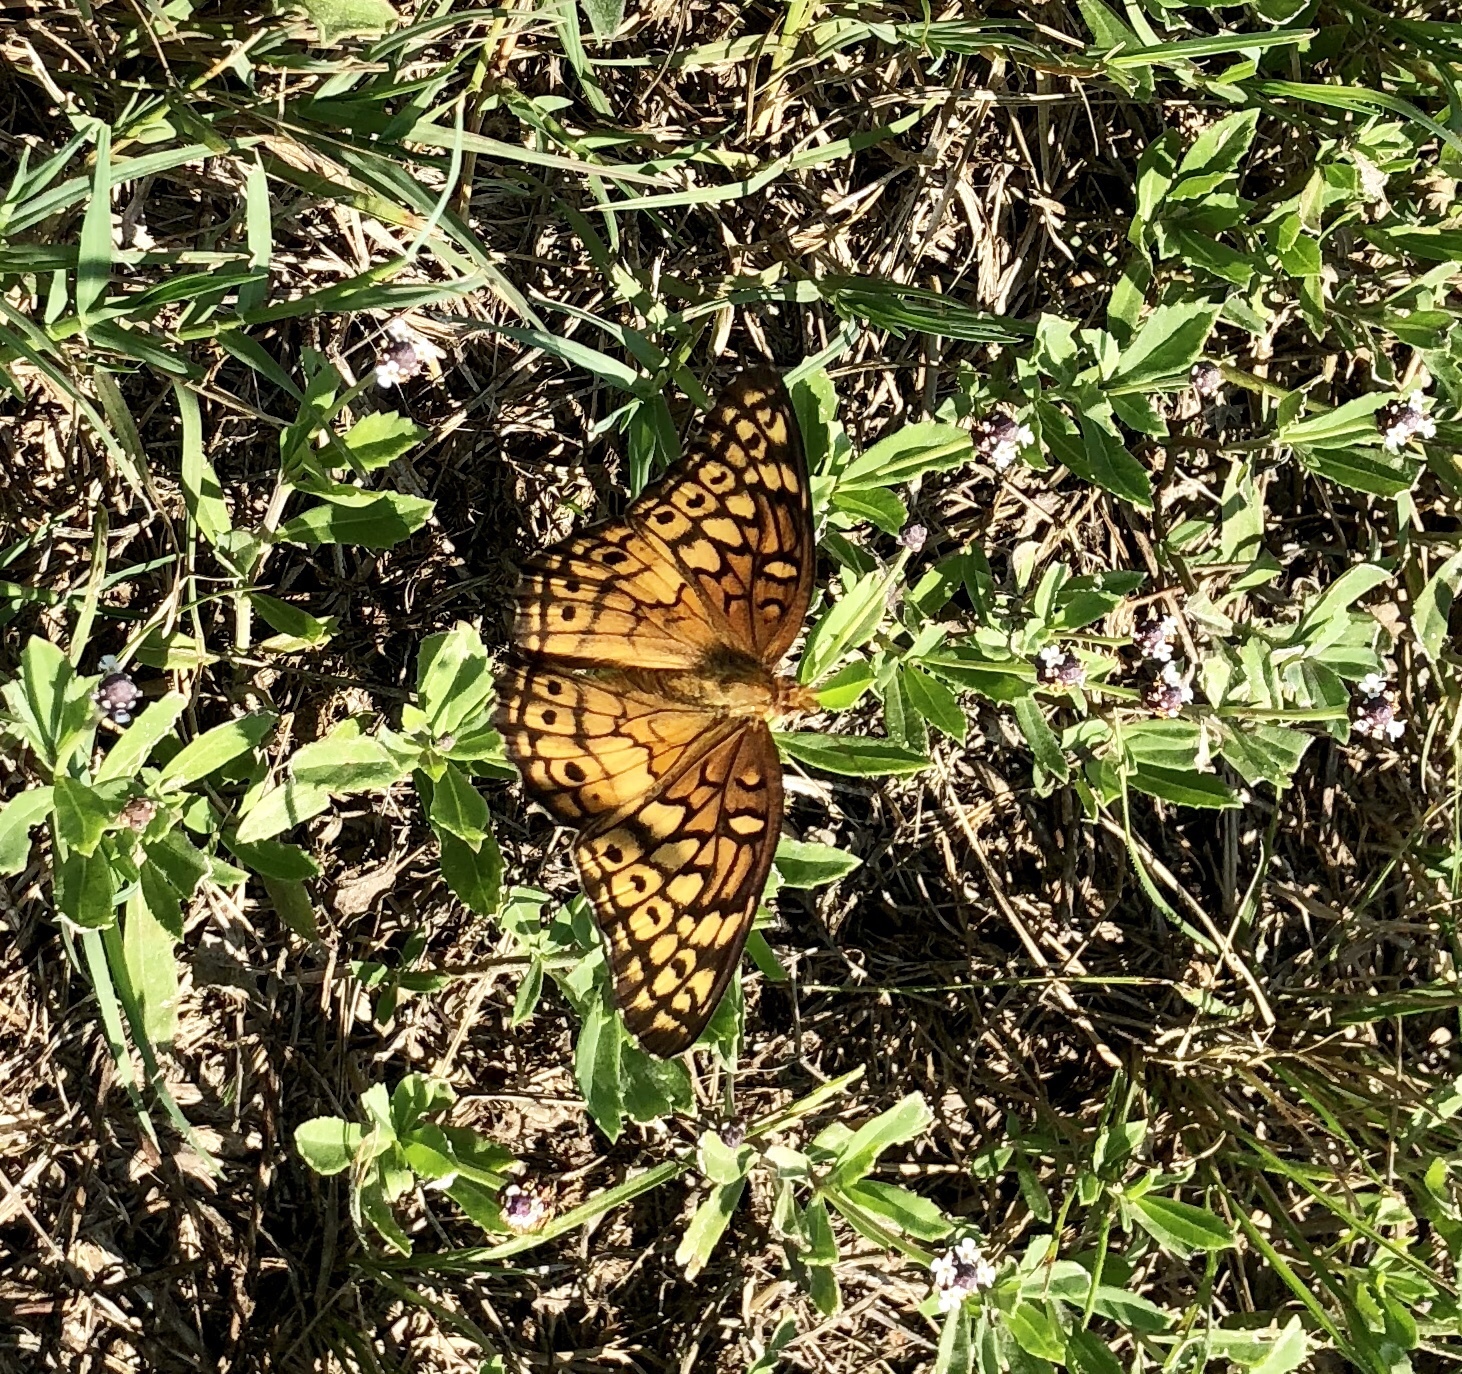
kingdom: Animalia
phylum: Arthropoda
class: Insecta
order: Lepidoptera
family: Nymphalidae
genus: Euptoieta
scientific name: Euptoieta claudia
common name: Variegated fritillary
